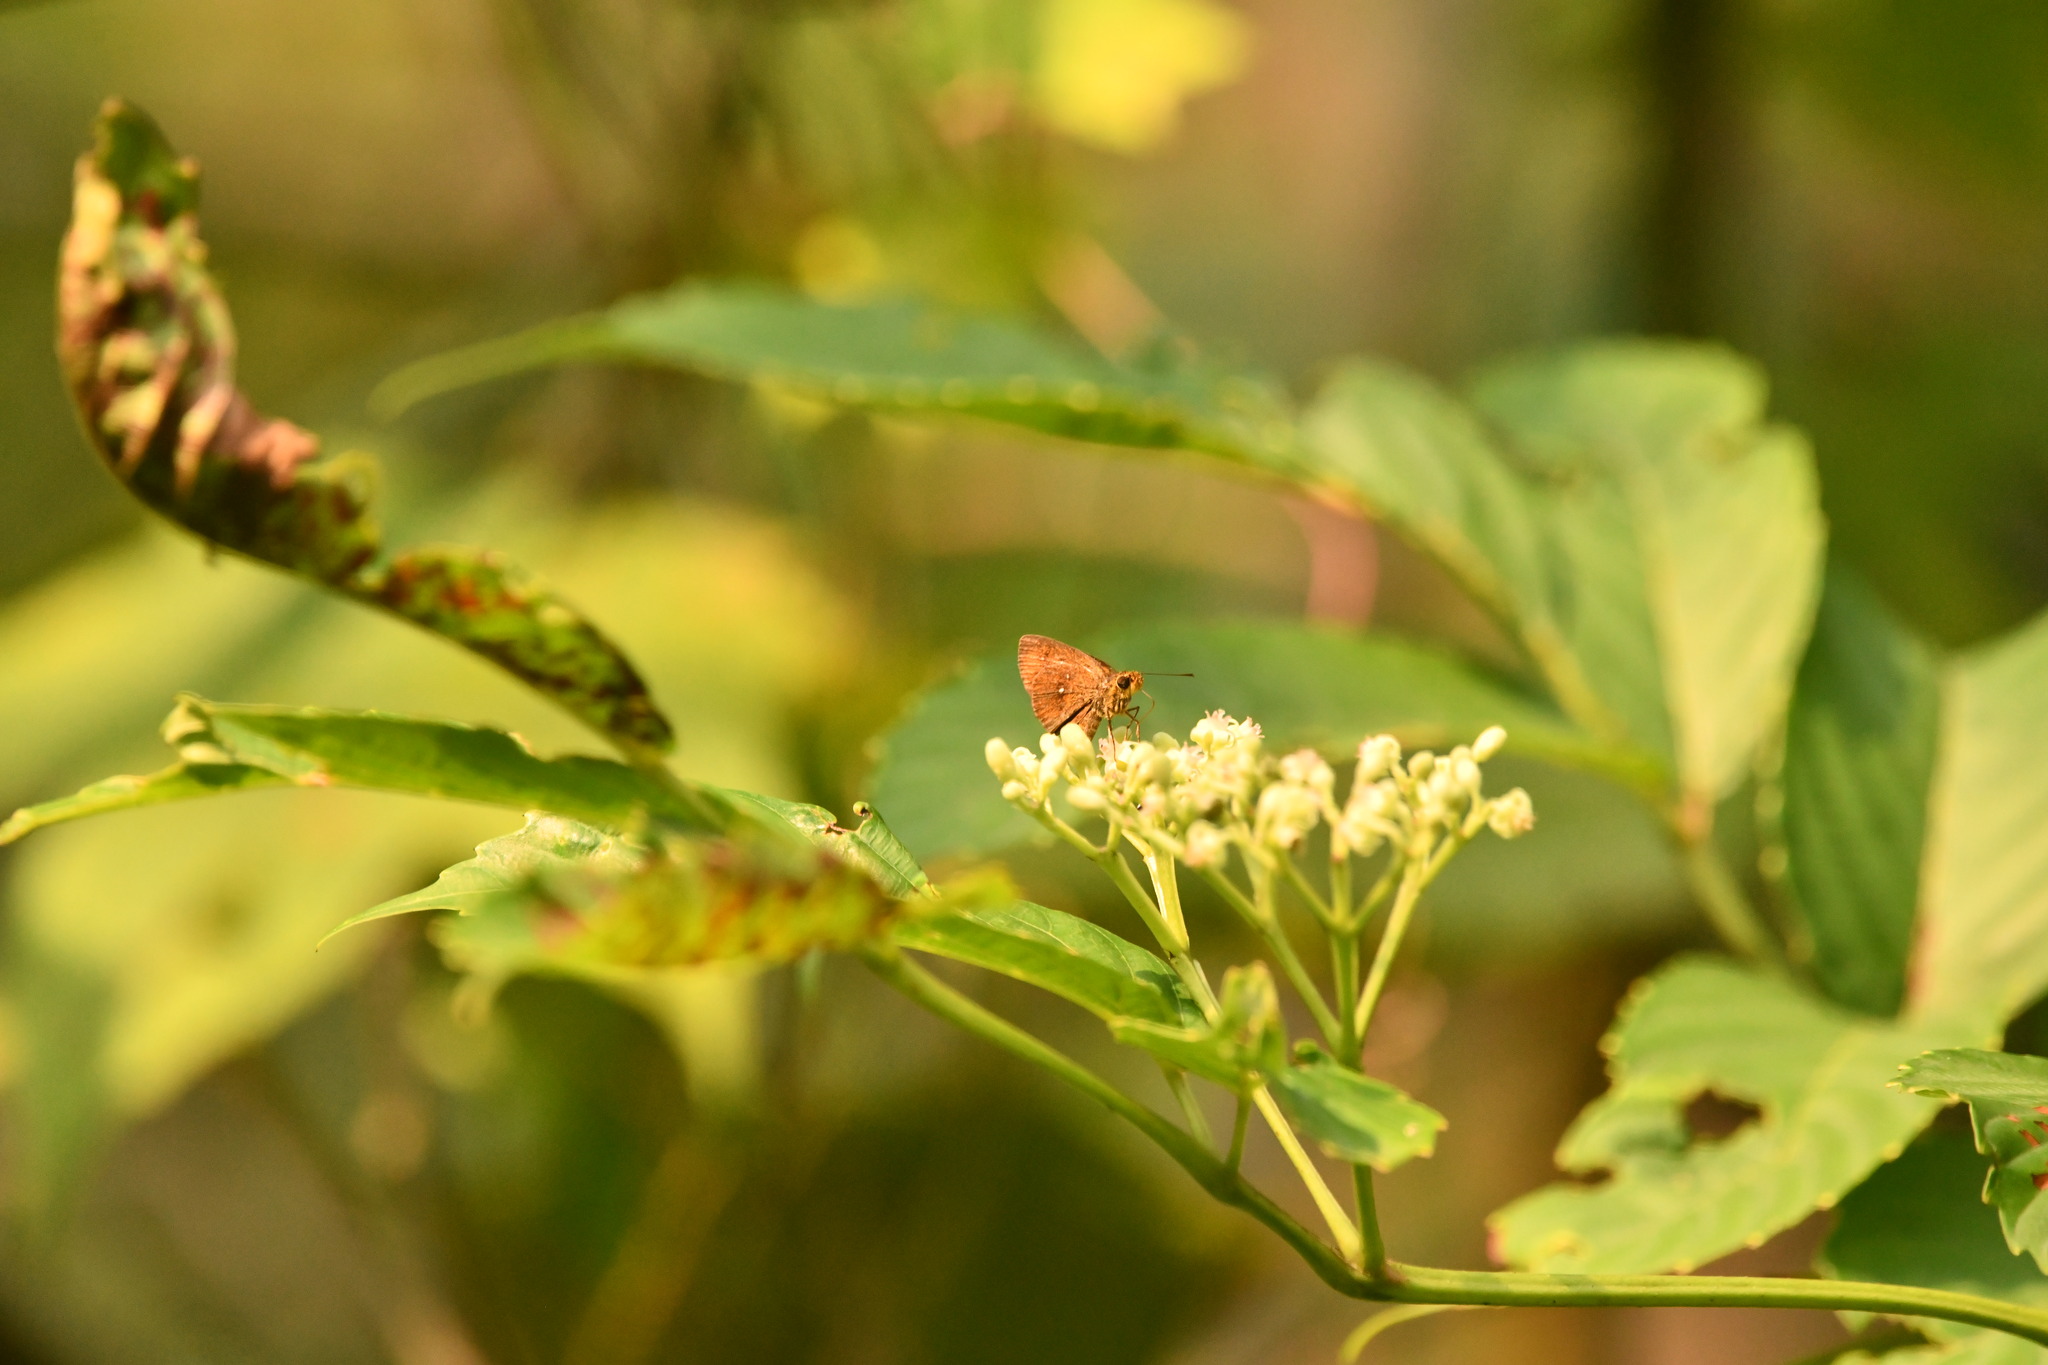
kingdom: Animalia
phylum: Arthropoda
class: Insecta
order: Lepidoptera
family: Hesperiidae
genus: Iambrix
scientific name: Iambrix salsala
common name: Chestnut bob
